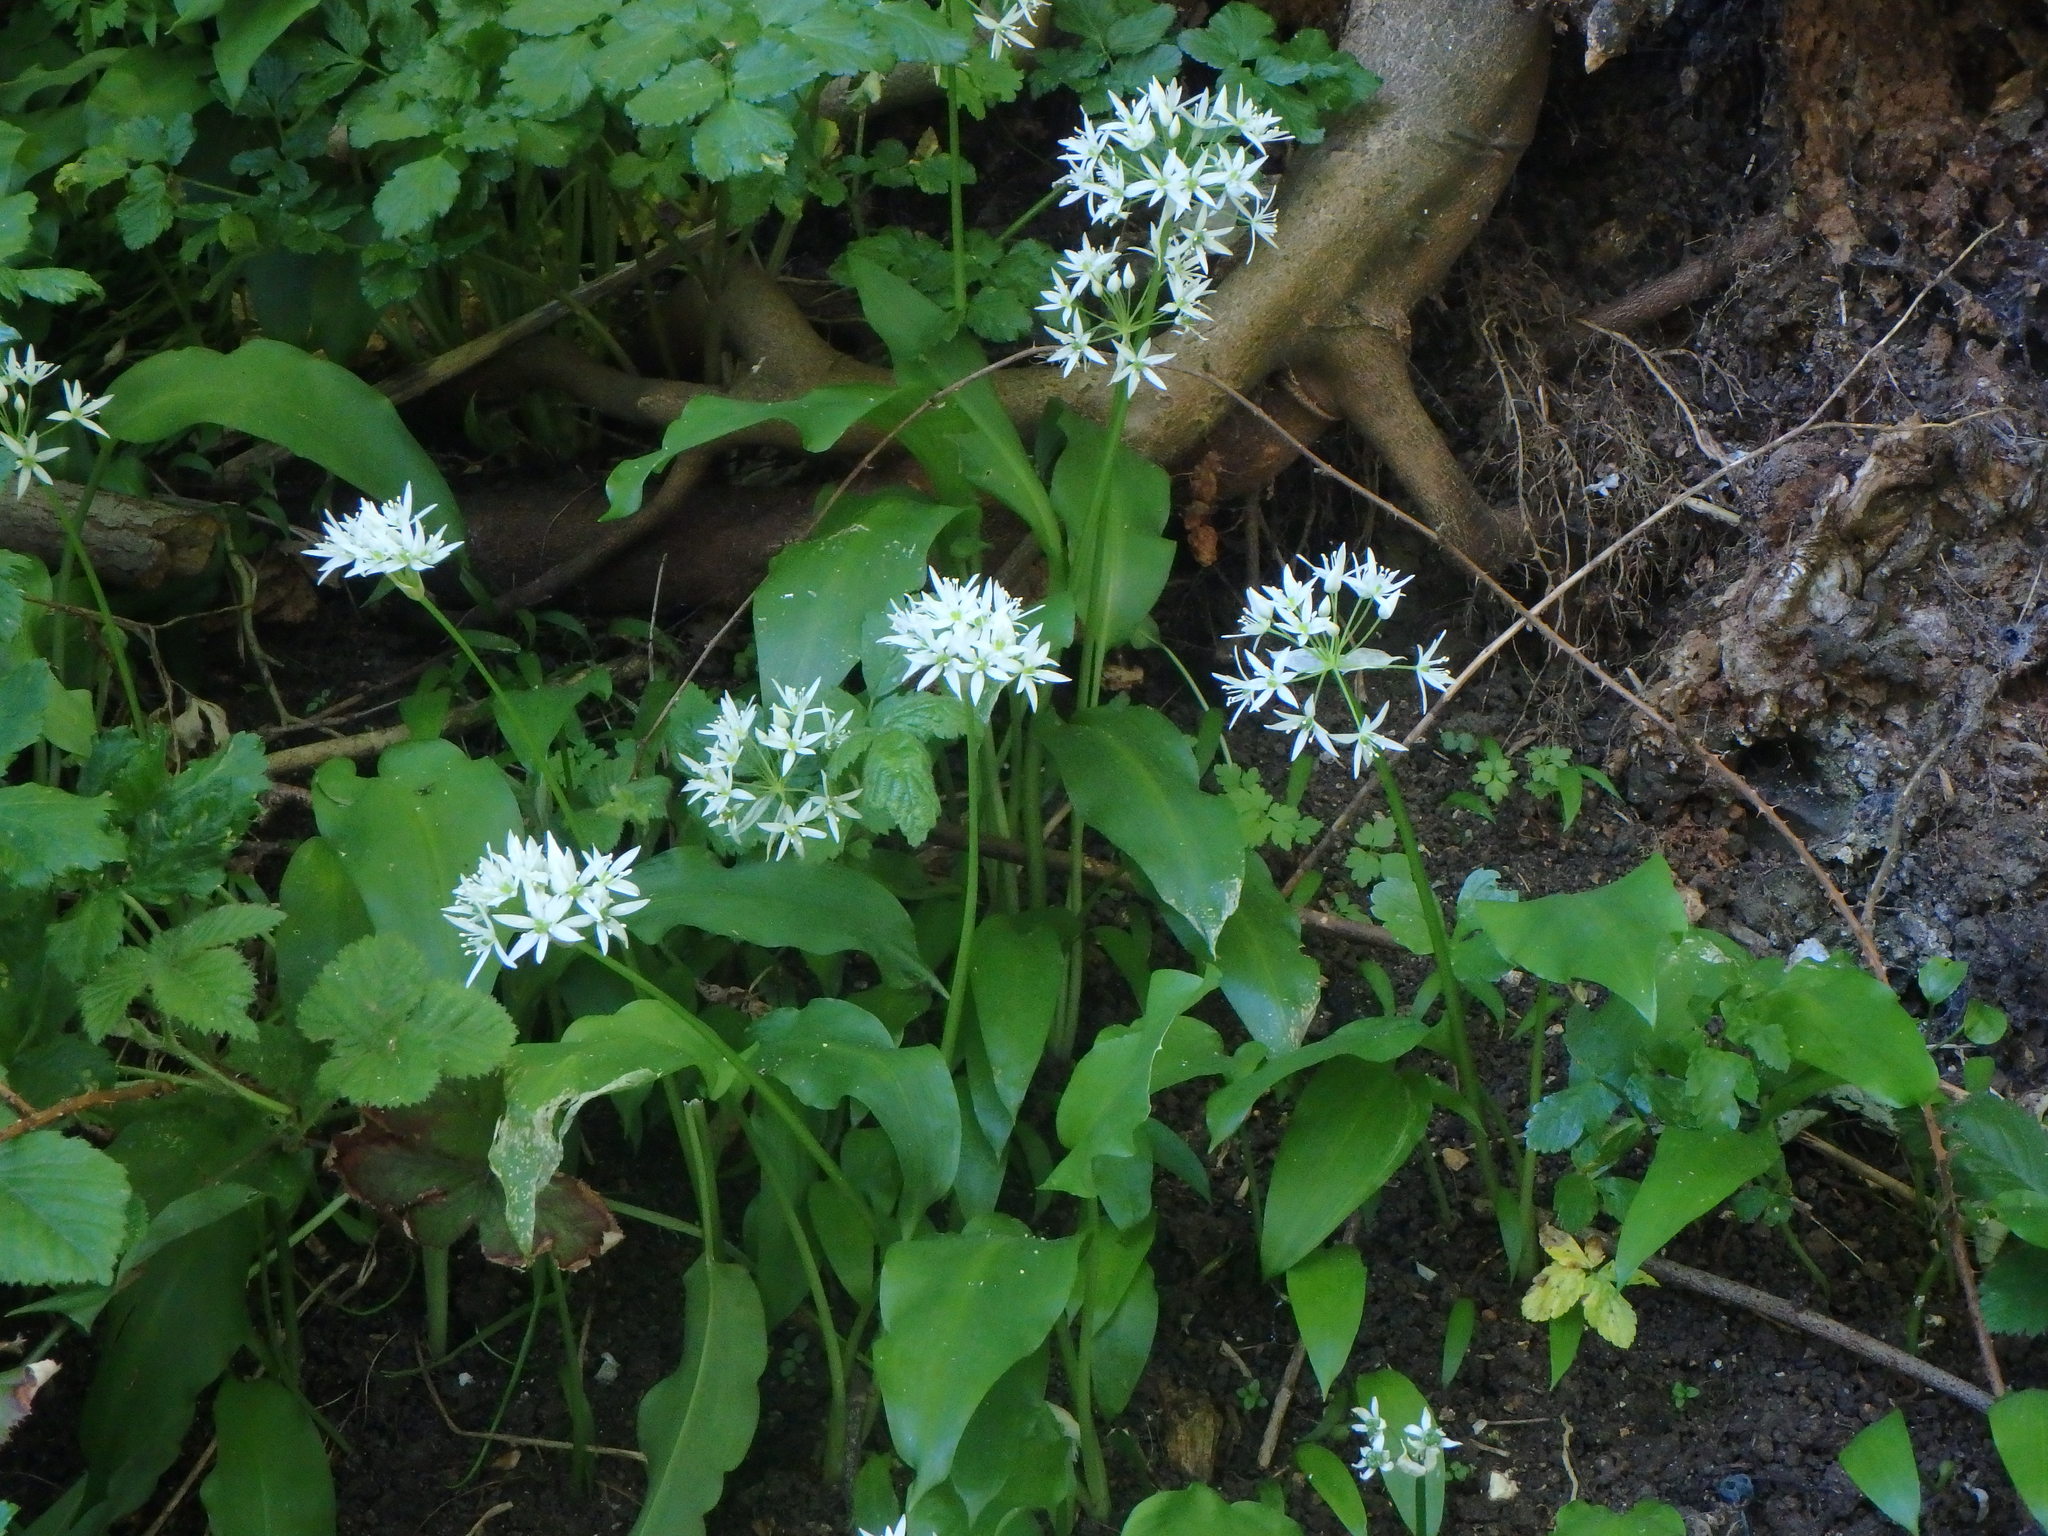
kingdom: Plantae
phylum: Tracheophyta
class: Liliopsida
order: Asparagales
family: Amaryllidaceae
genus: Allium
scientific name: Allium ursinum
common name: Ramsons
